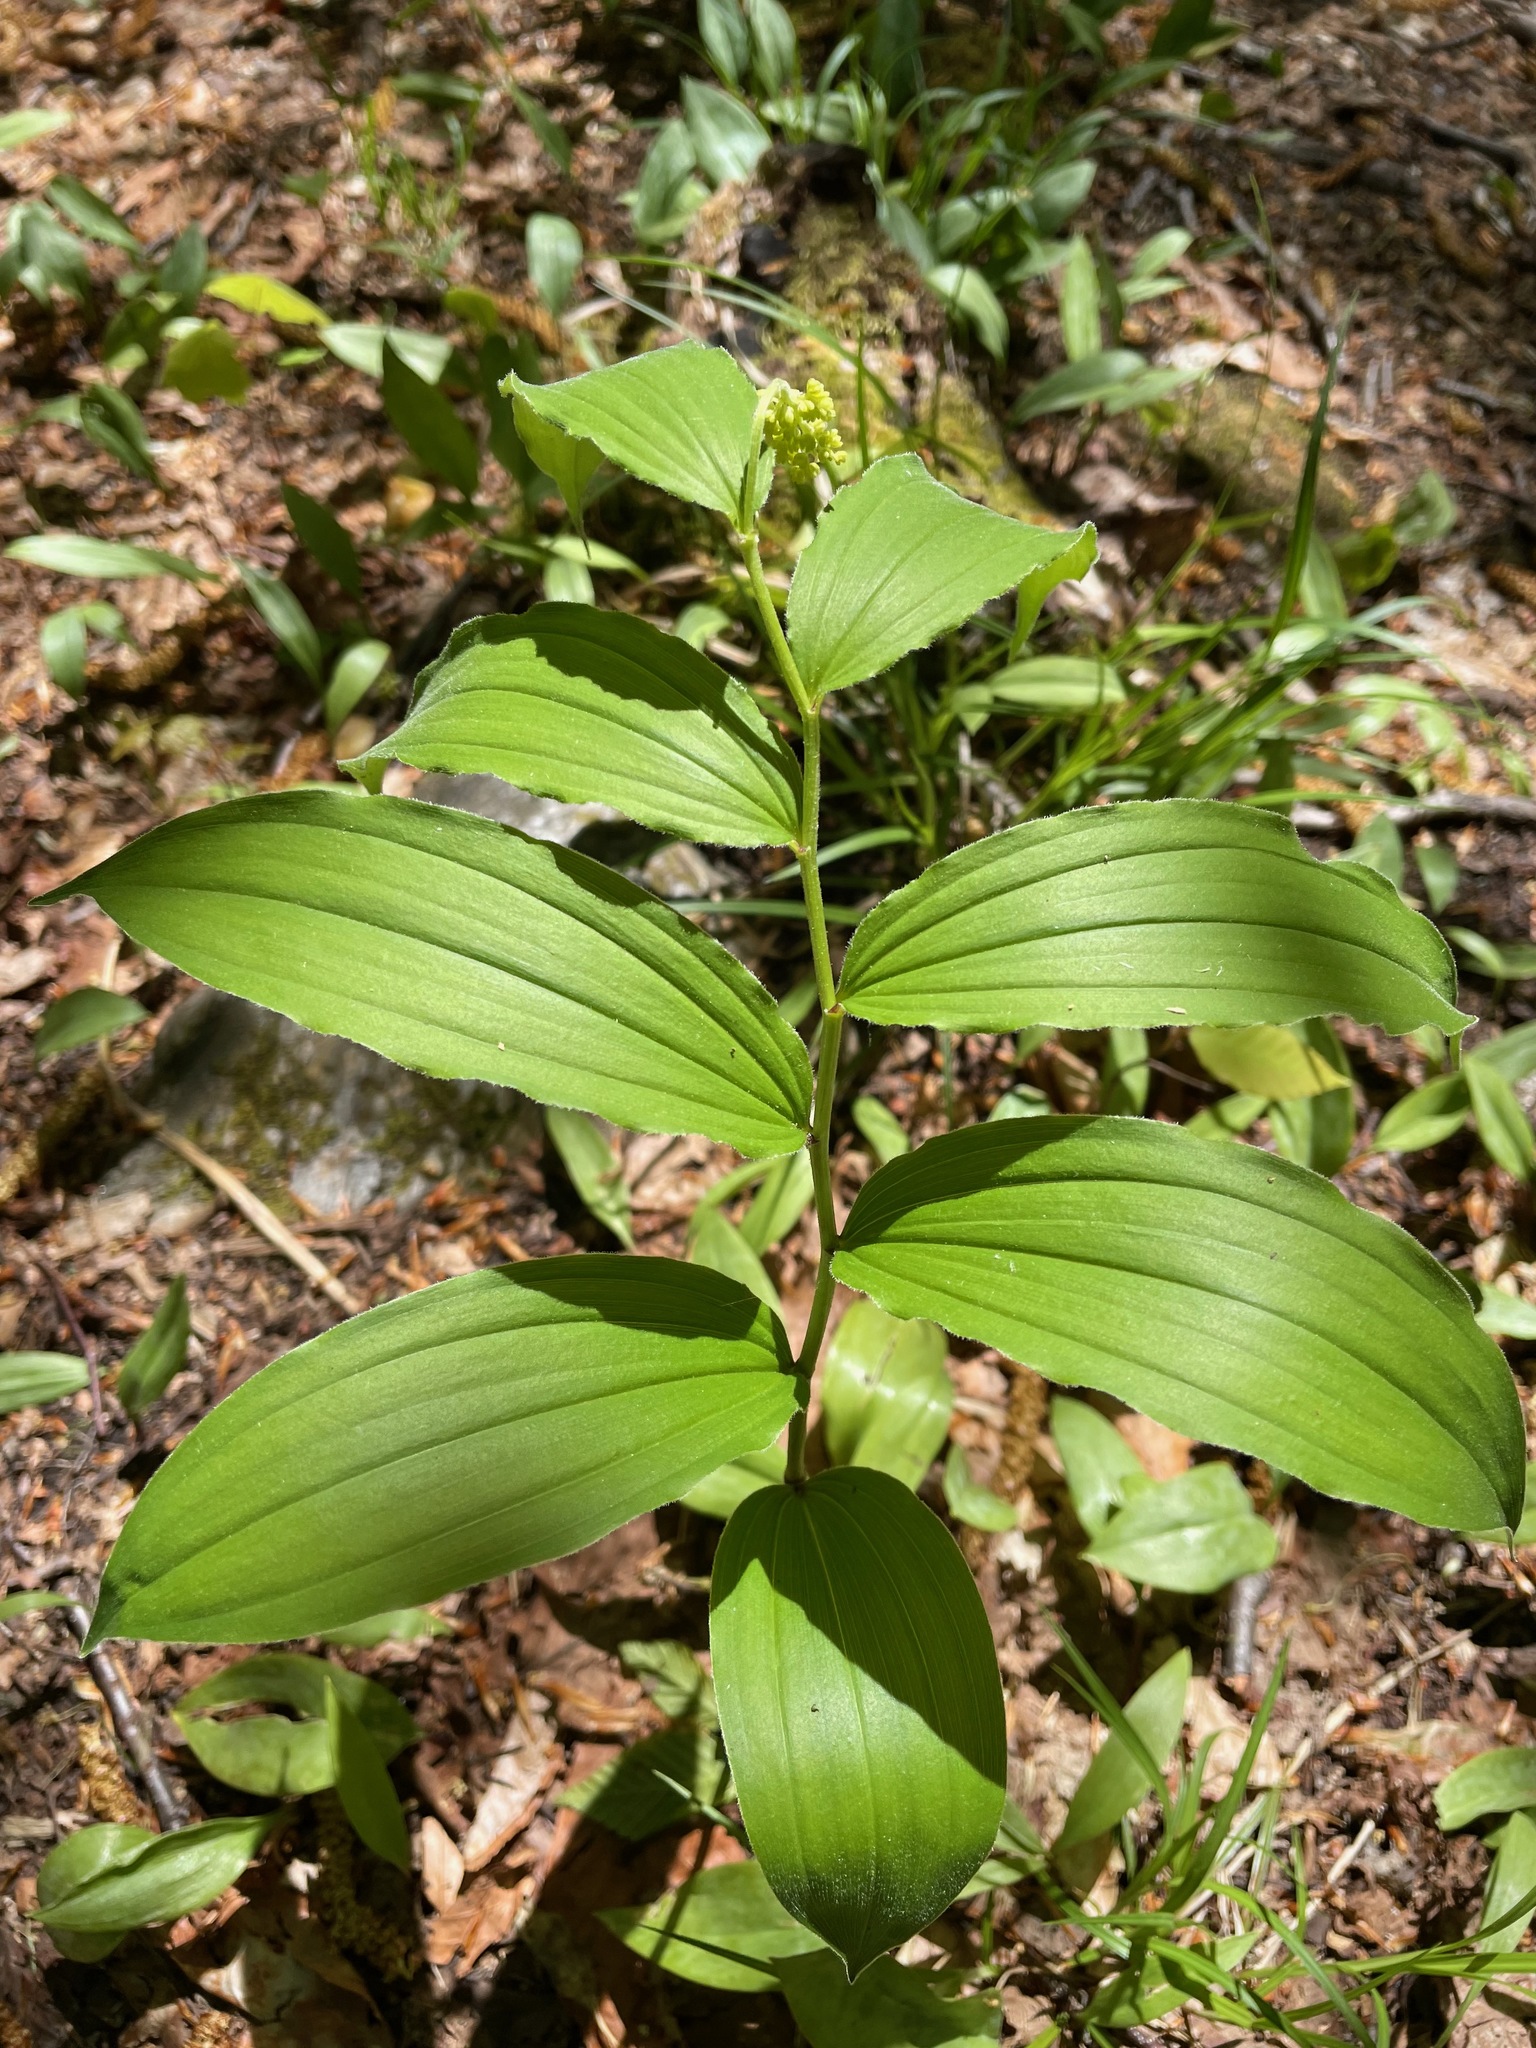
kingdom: Plantae
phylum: Tracheophyta
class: Liliopsida
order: Asparagales
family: Asparagaceae
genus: Maianthemum
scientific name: Maianthemum racemosum
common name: False spikenard
